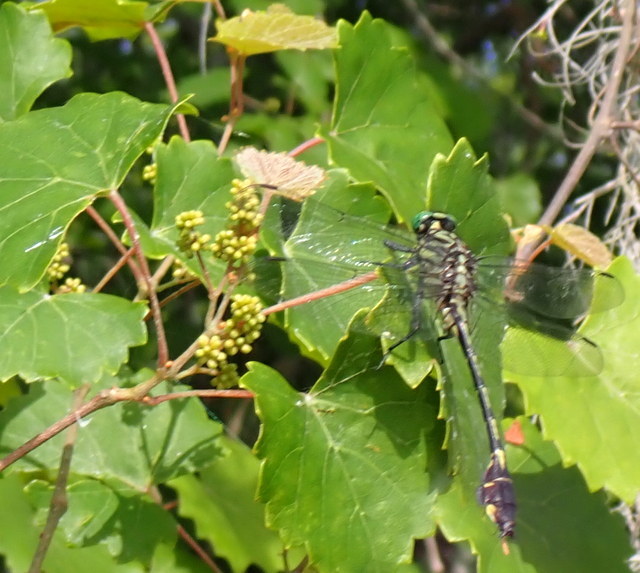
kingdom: Animalia
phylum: Arthropoda
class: Insecta
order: Odonata
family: Gomphidae
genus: Gomphurus
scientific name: Gomphurus dilatatus
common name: Blackwater clubtail
